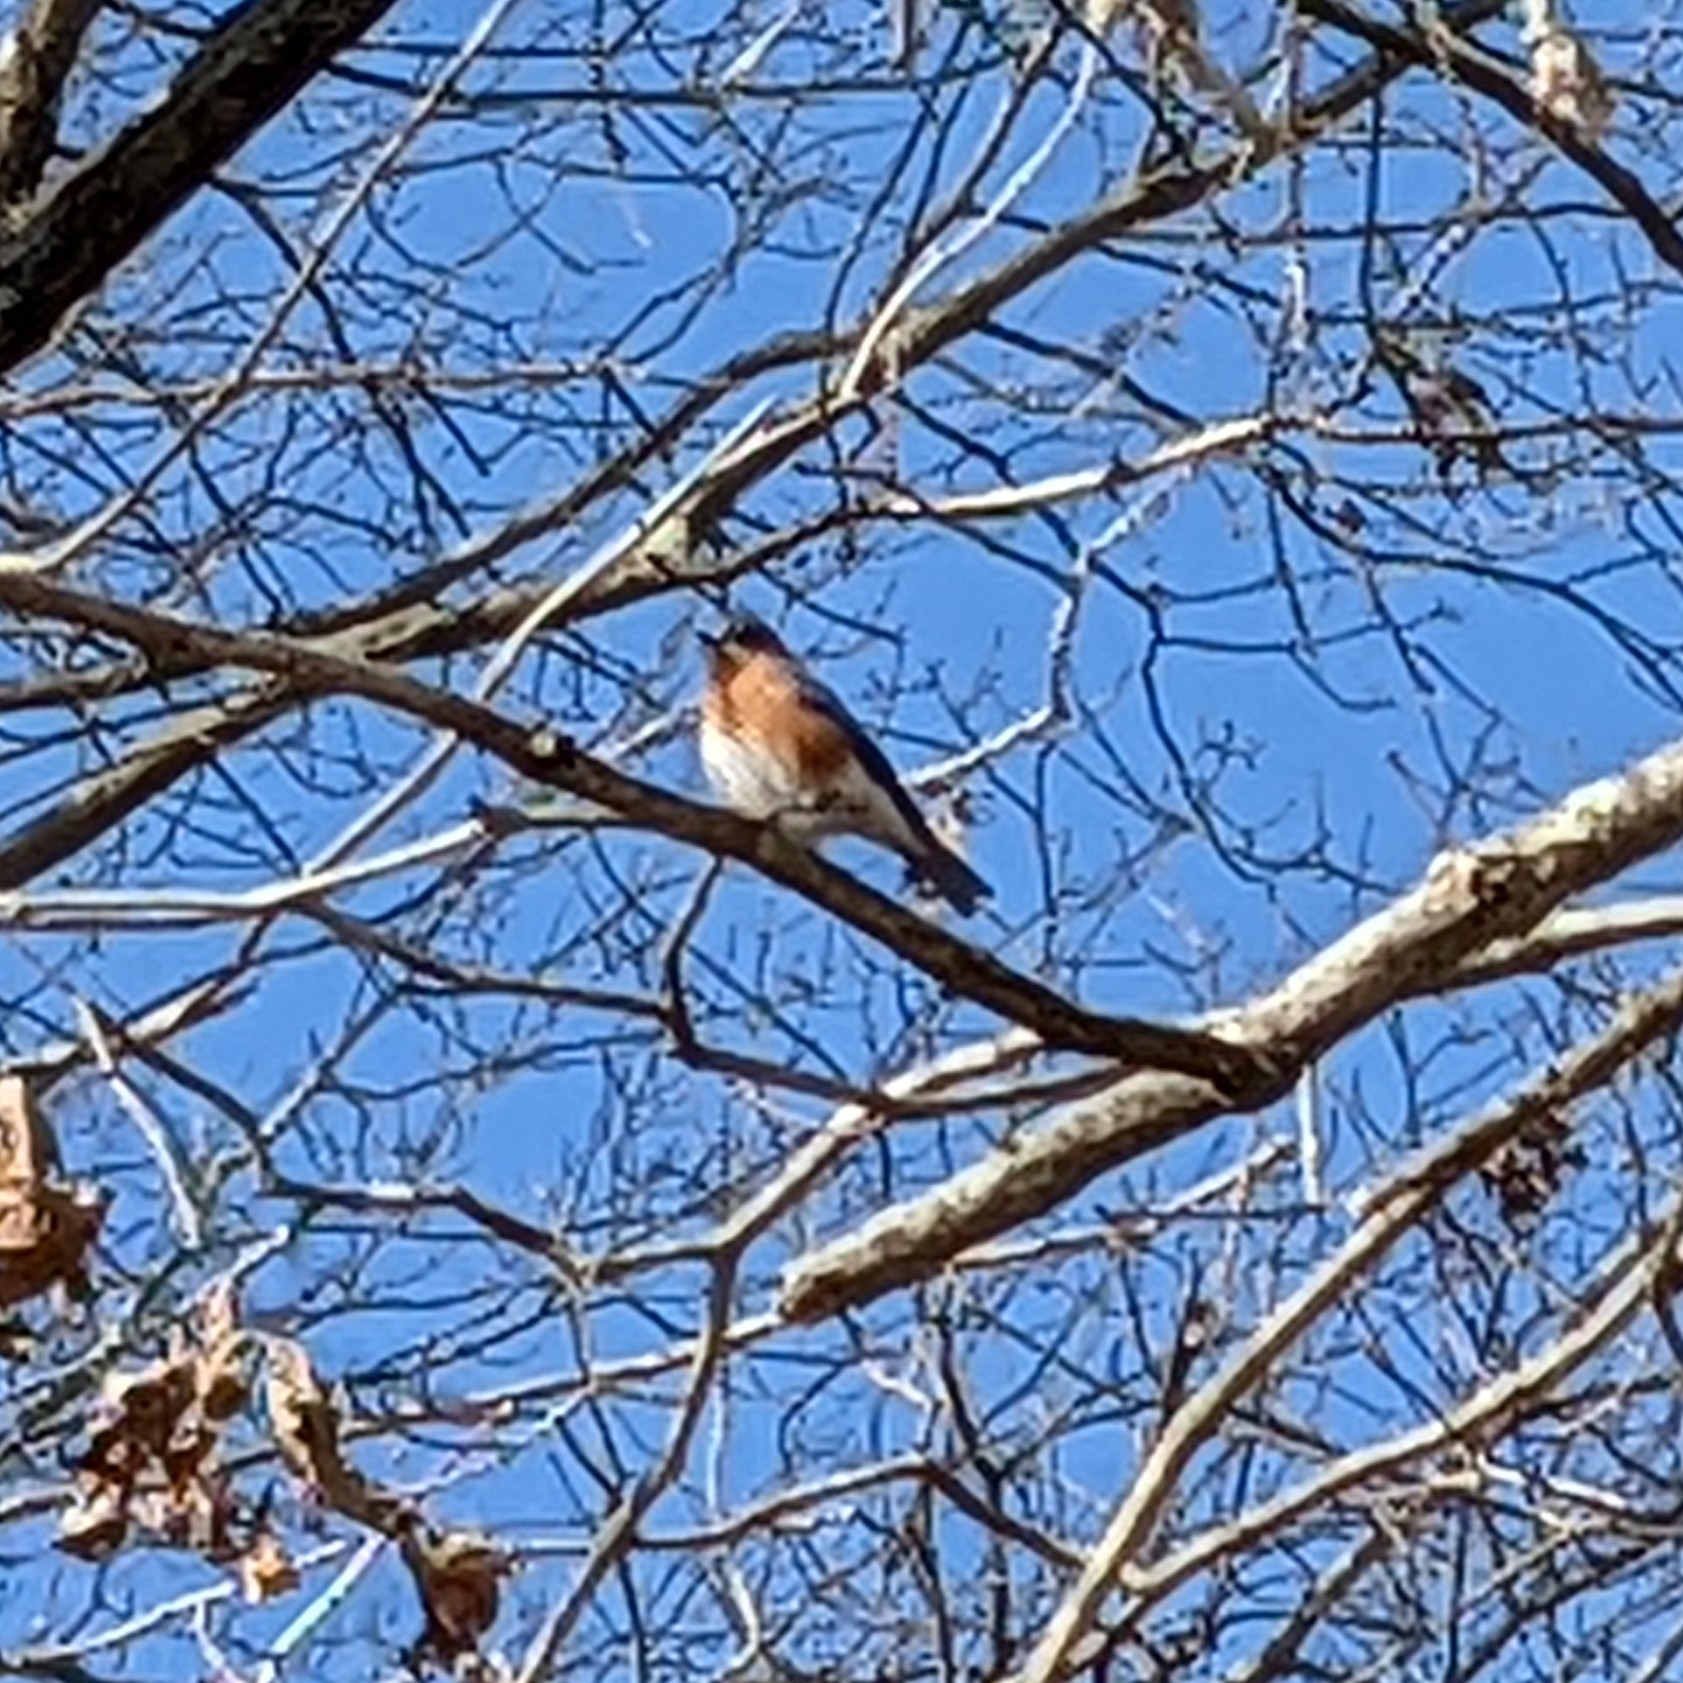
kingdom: Animalia
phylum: Chordata
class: Aves
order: Passeriformes
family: Turdidae
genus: Sialia
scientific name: Sialia sialis
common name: Eastern bluebird
